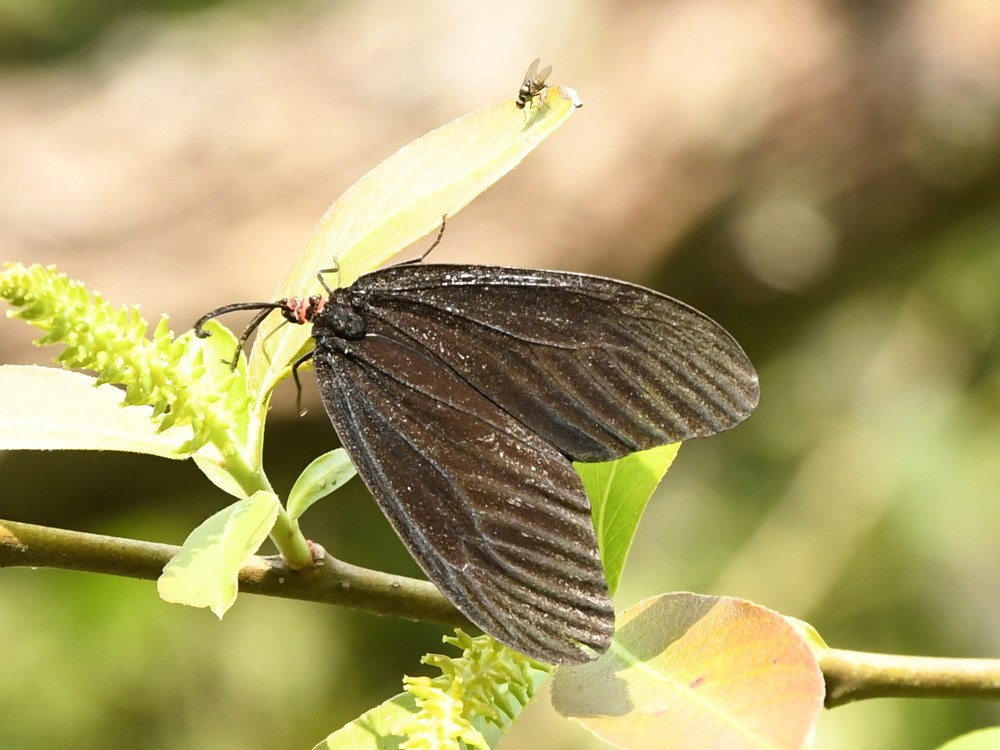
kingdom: Animalia
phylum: Arthropoda
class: Insecta
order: Lepidoptera
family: Zygaenidae
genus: Gynautocera
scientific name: Gynautocera papilionaria
